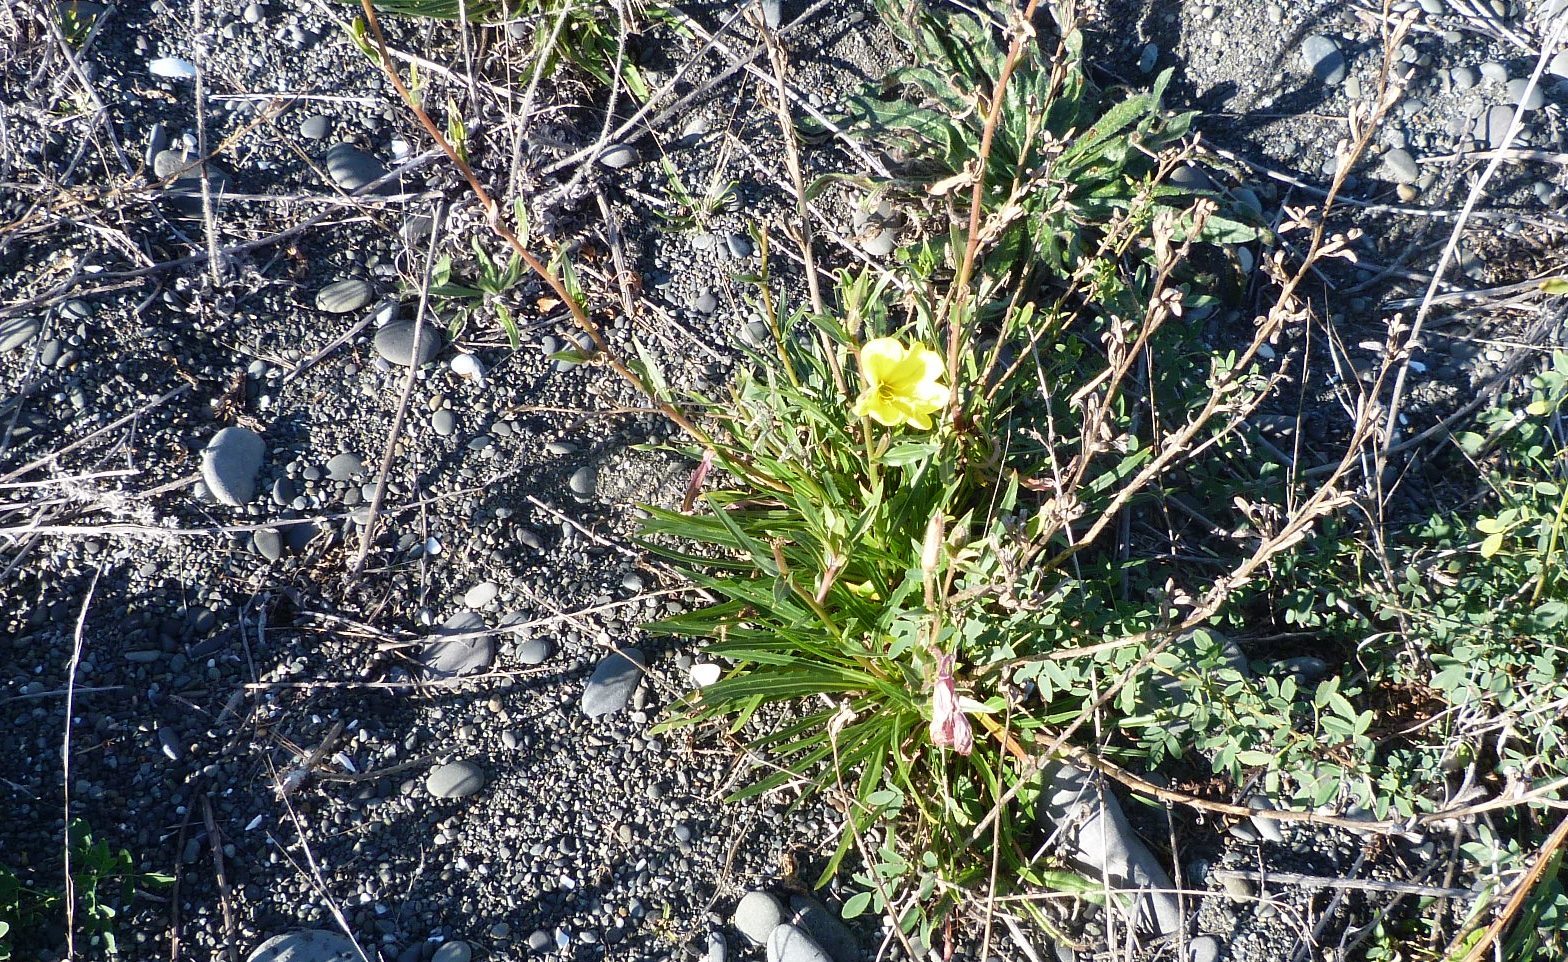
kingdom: Plantae
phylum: Tracheophyta
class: Magnoliopsida
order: Myrtales
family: Onagraceae
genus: Oenothera
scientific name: Oenothera stricta
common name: Fragrant evening-primrose
